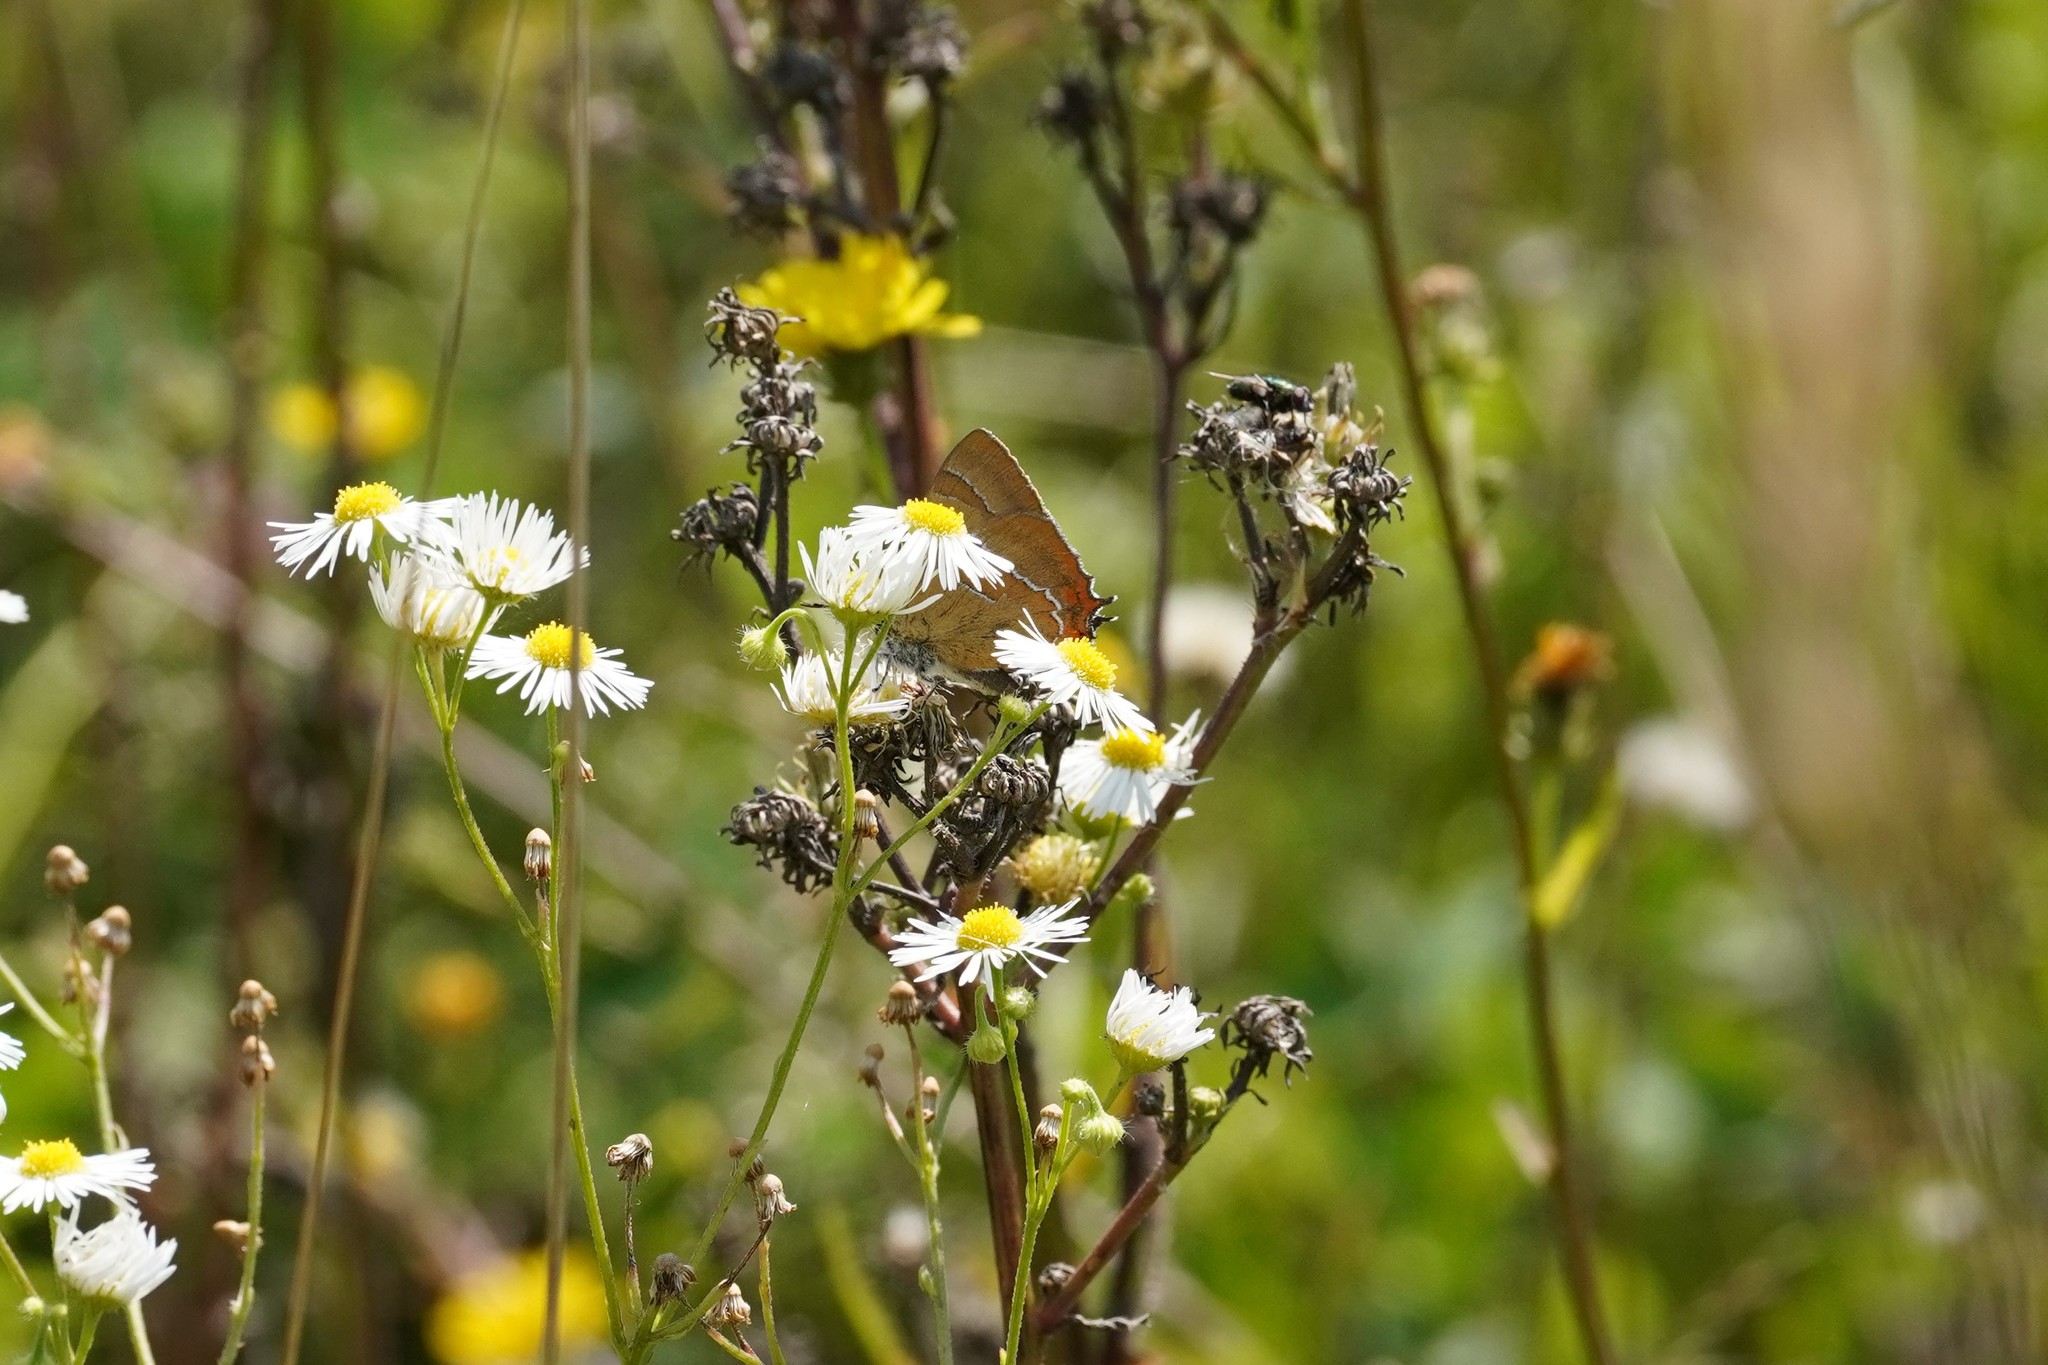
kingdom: Animalia
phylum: Arthropoda
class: Insecta
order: Lepidoptera
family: Lycaenidae
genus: Thecla
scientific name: Thecla betulae
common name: Brown hairstreak
